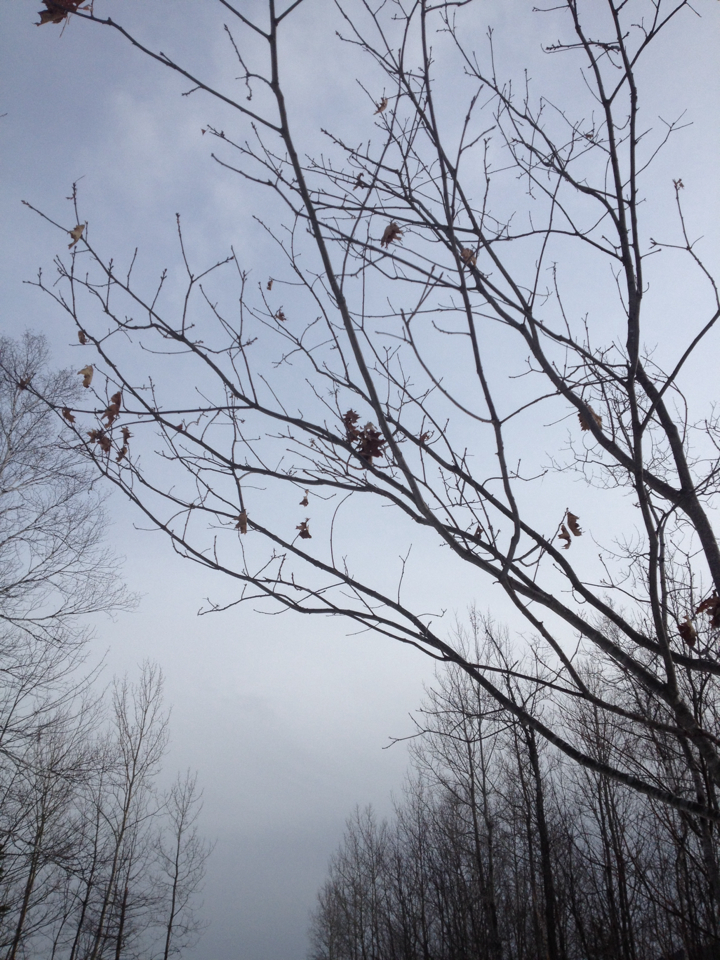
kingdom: Plantae
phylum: Tracheophyta
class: Magnoliopsida
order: Fagales
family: Fagaceae
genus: Quercus
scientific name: Quercus rubra
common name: Red oak
